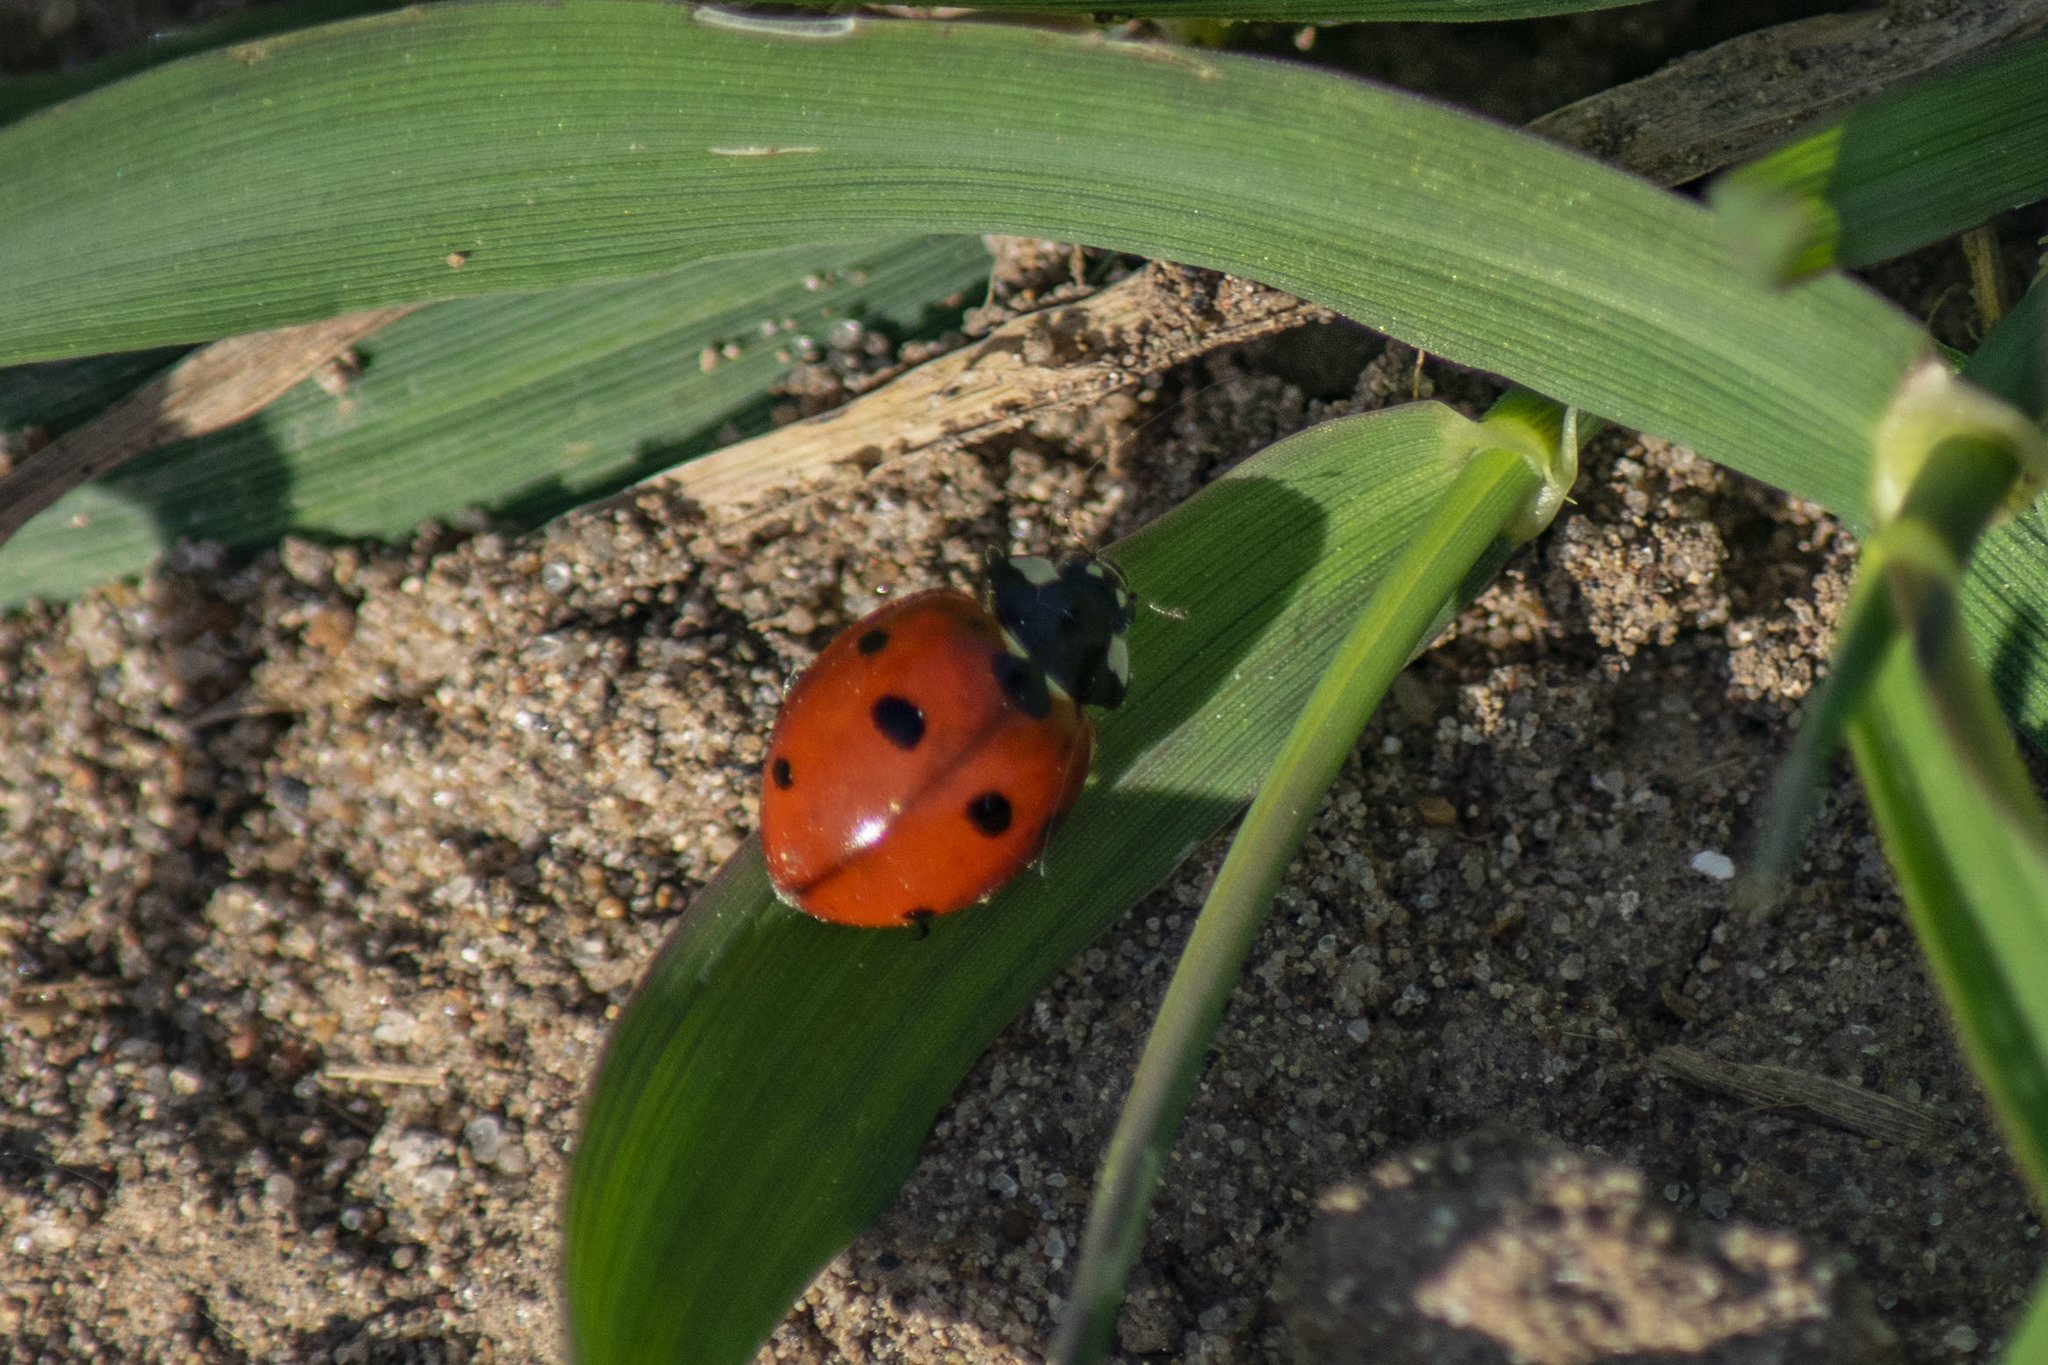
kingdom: Animalia
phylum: Arthropoda
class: Insecta
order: Coleoptera
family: Coccinellidae
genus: Coccinella
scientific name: Coccinella septempunctata
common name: Sevenspotted lady beetle
